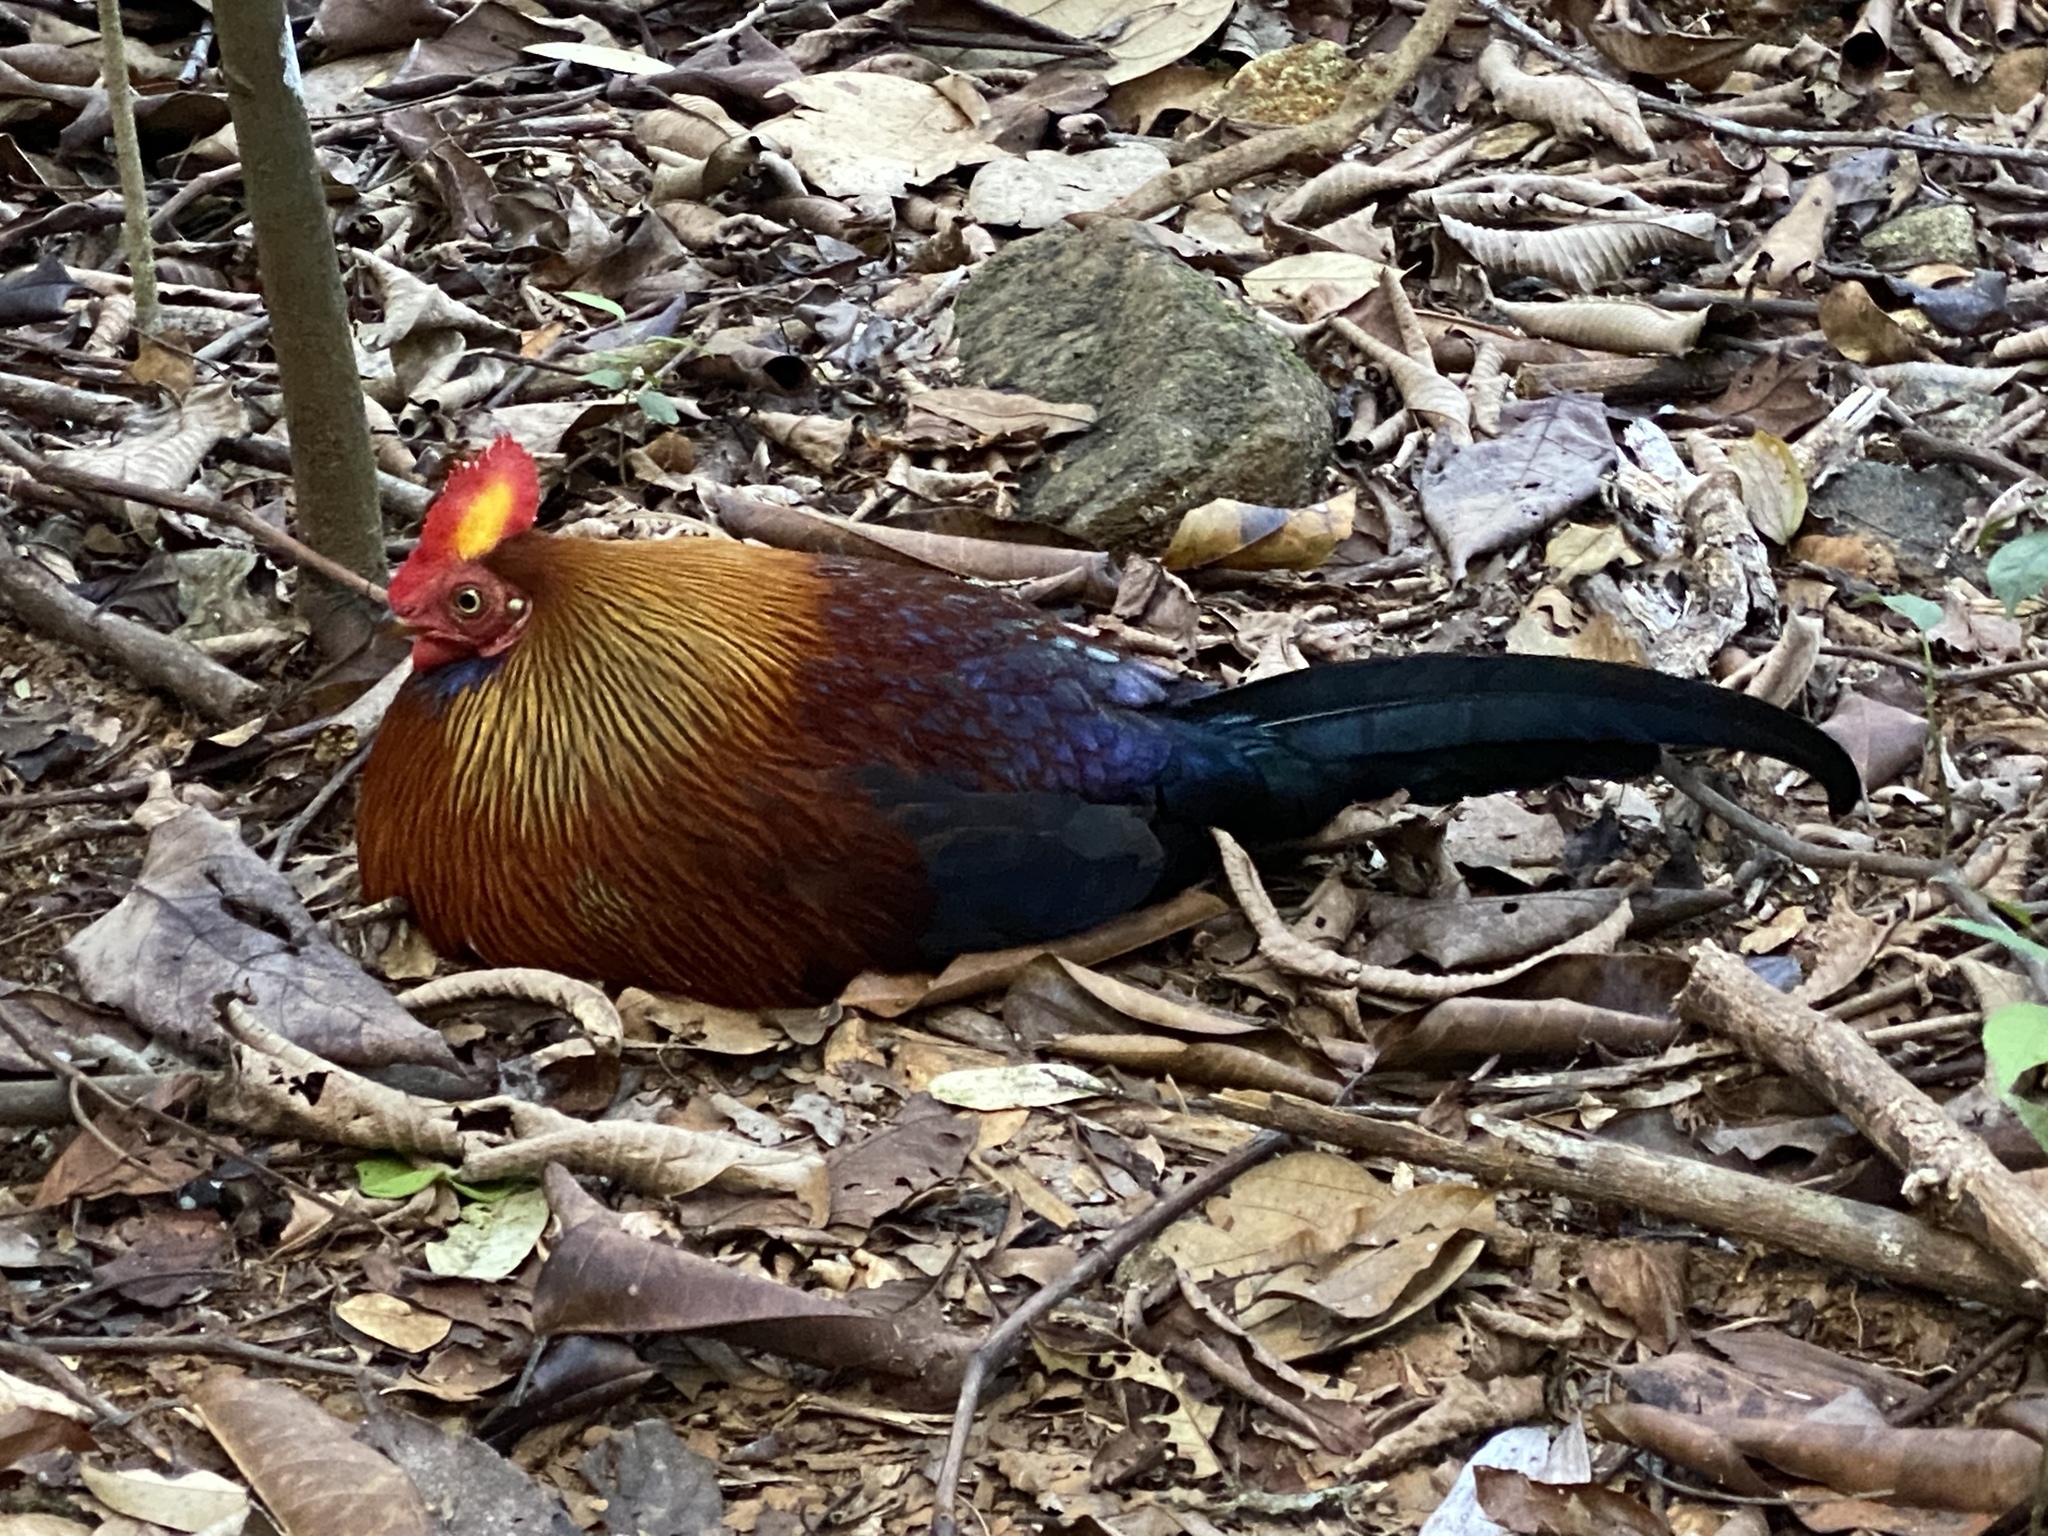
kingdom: Animalia
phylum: Chordata
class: Aves
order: Galliformes
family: Phasianidae
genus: Gallus
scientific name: Gallus lafayettii
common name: Sri lanka junglefowl
